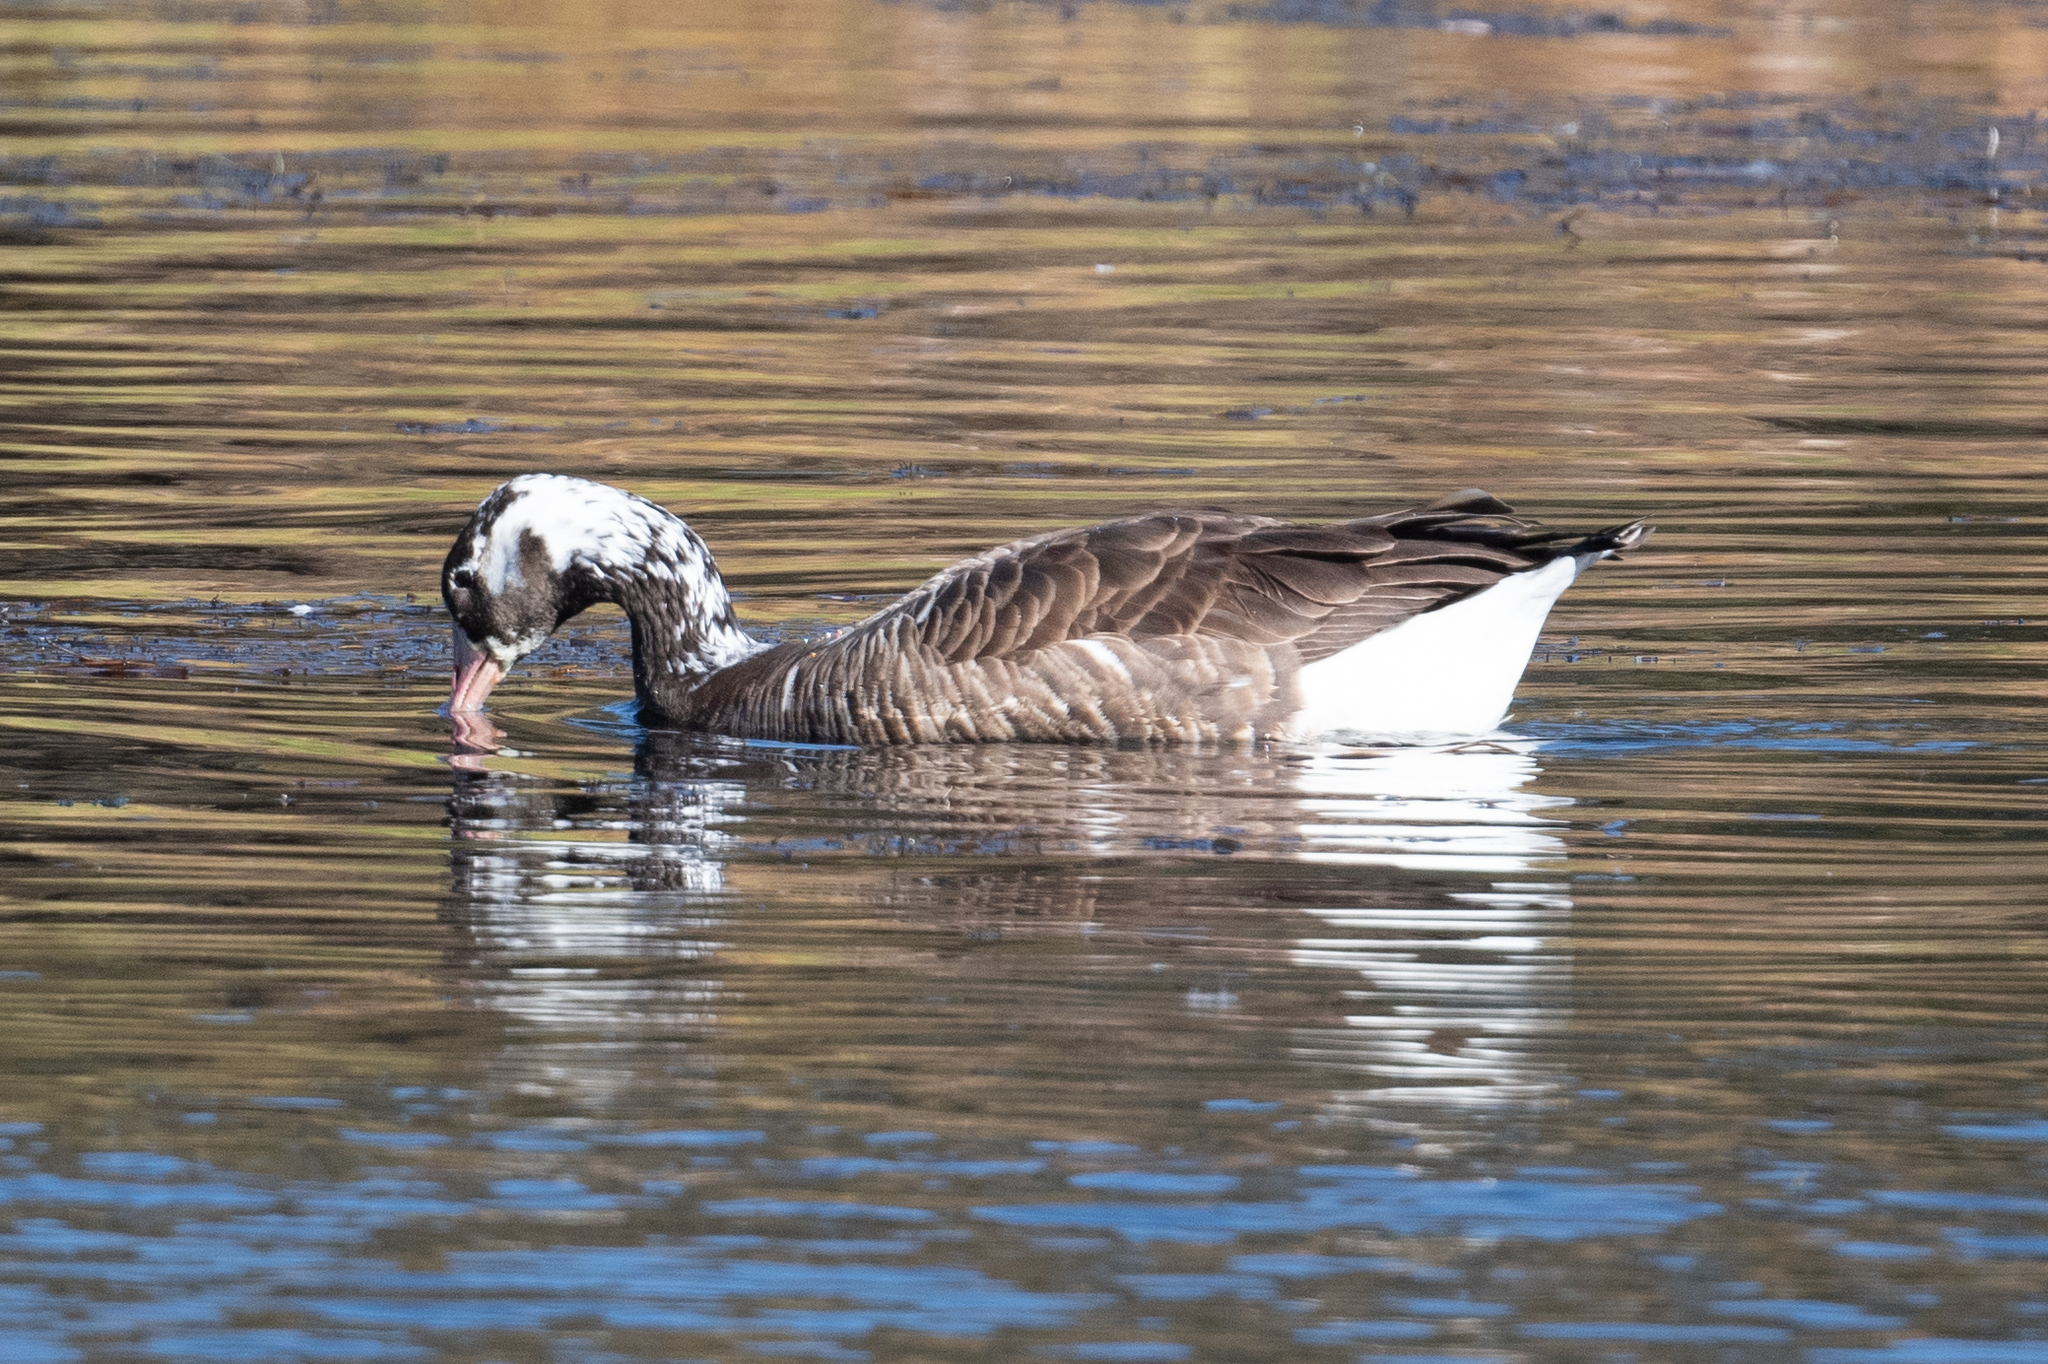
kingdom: Animalia
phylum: Chordata
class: Aves
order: Anseriformes
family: Anatidae
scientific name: Anatidae
